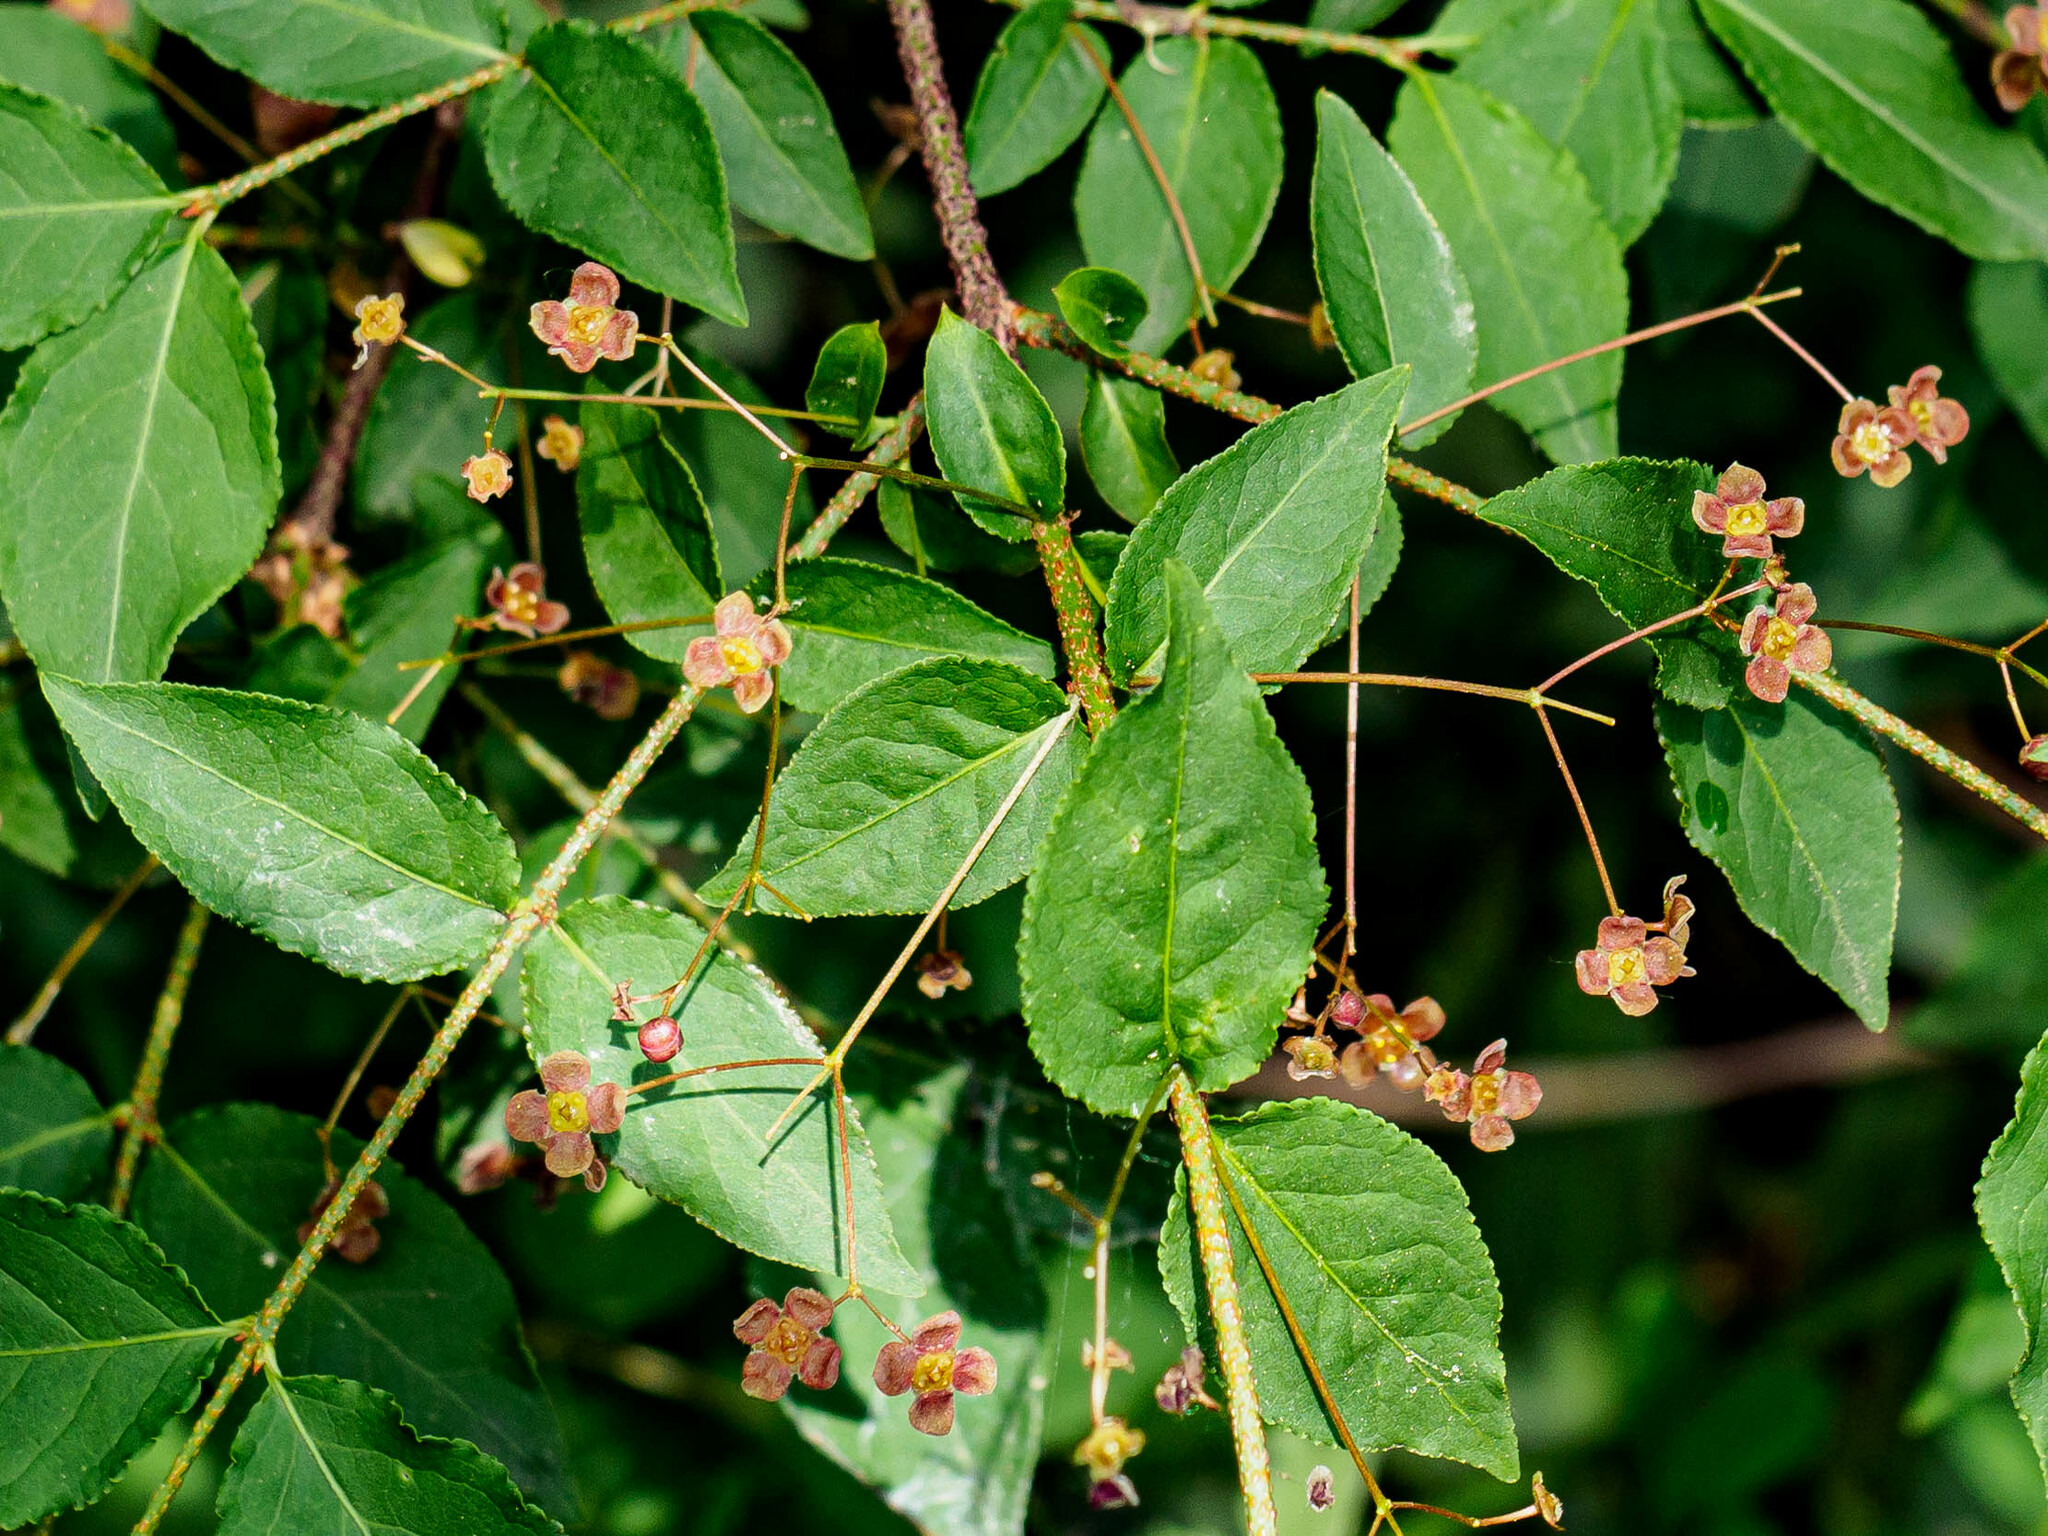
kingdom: Plantae
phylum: Tracheophyta
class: Magnoliopsida
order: Celastrales
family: Celastraceae
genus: Euonymus
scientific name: Euonymus verrucosus
